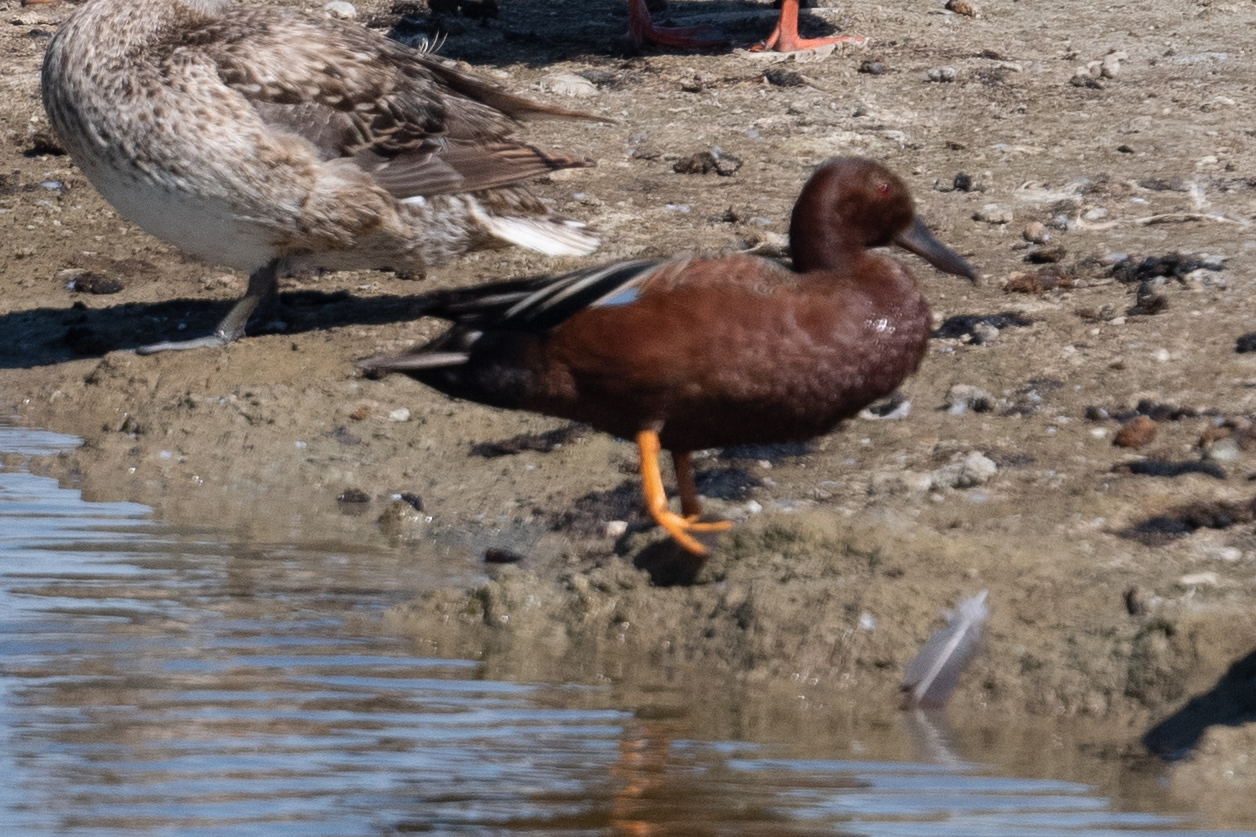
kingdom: Animalia
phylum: Chordata
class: Aves
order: Anseriformes
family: Anatidae
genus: Spatula
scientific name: Spatula cyanoptera
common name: Cinnamon teal
